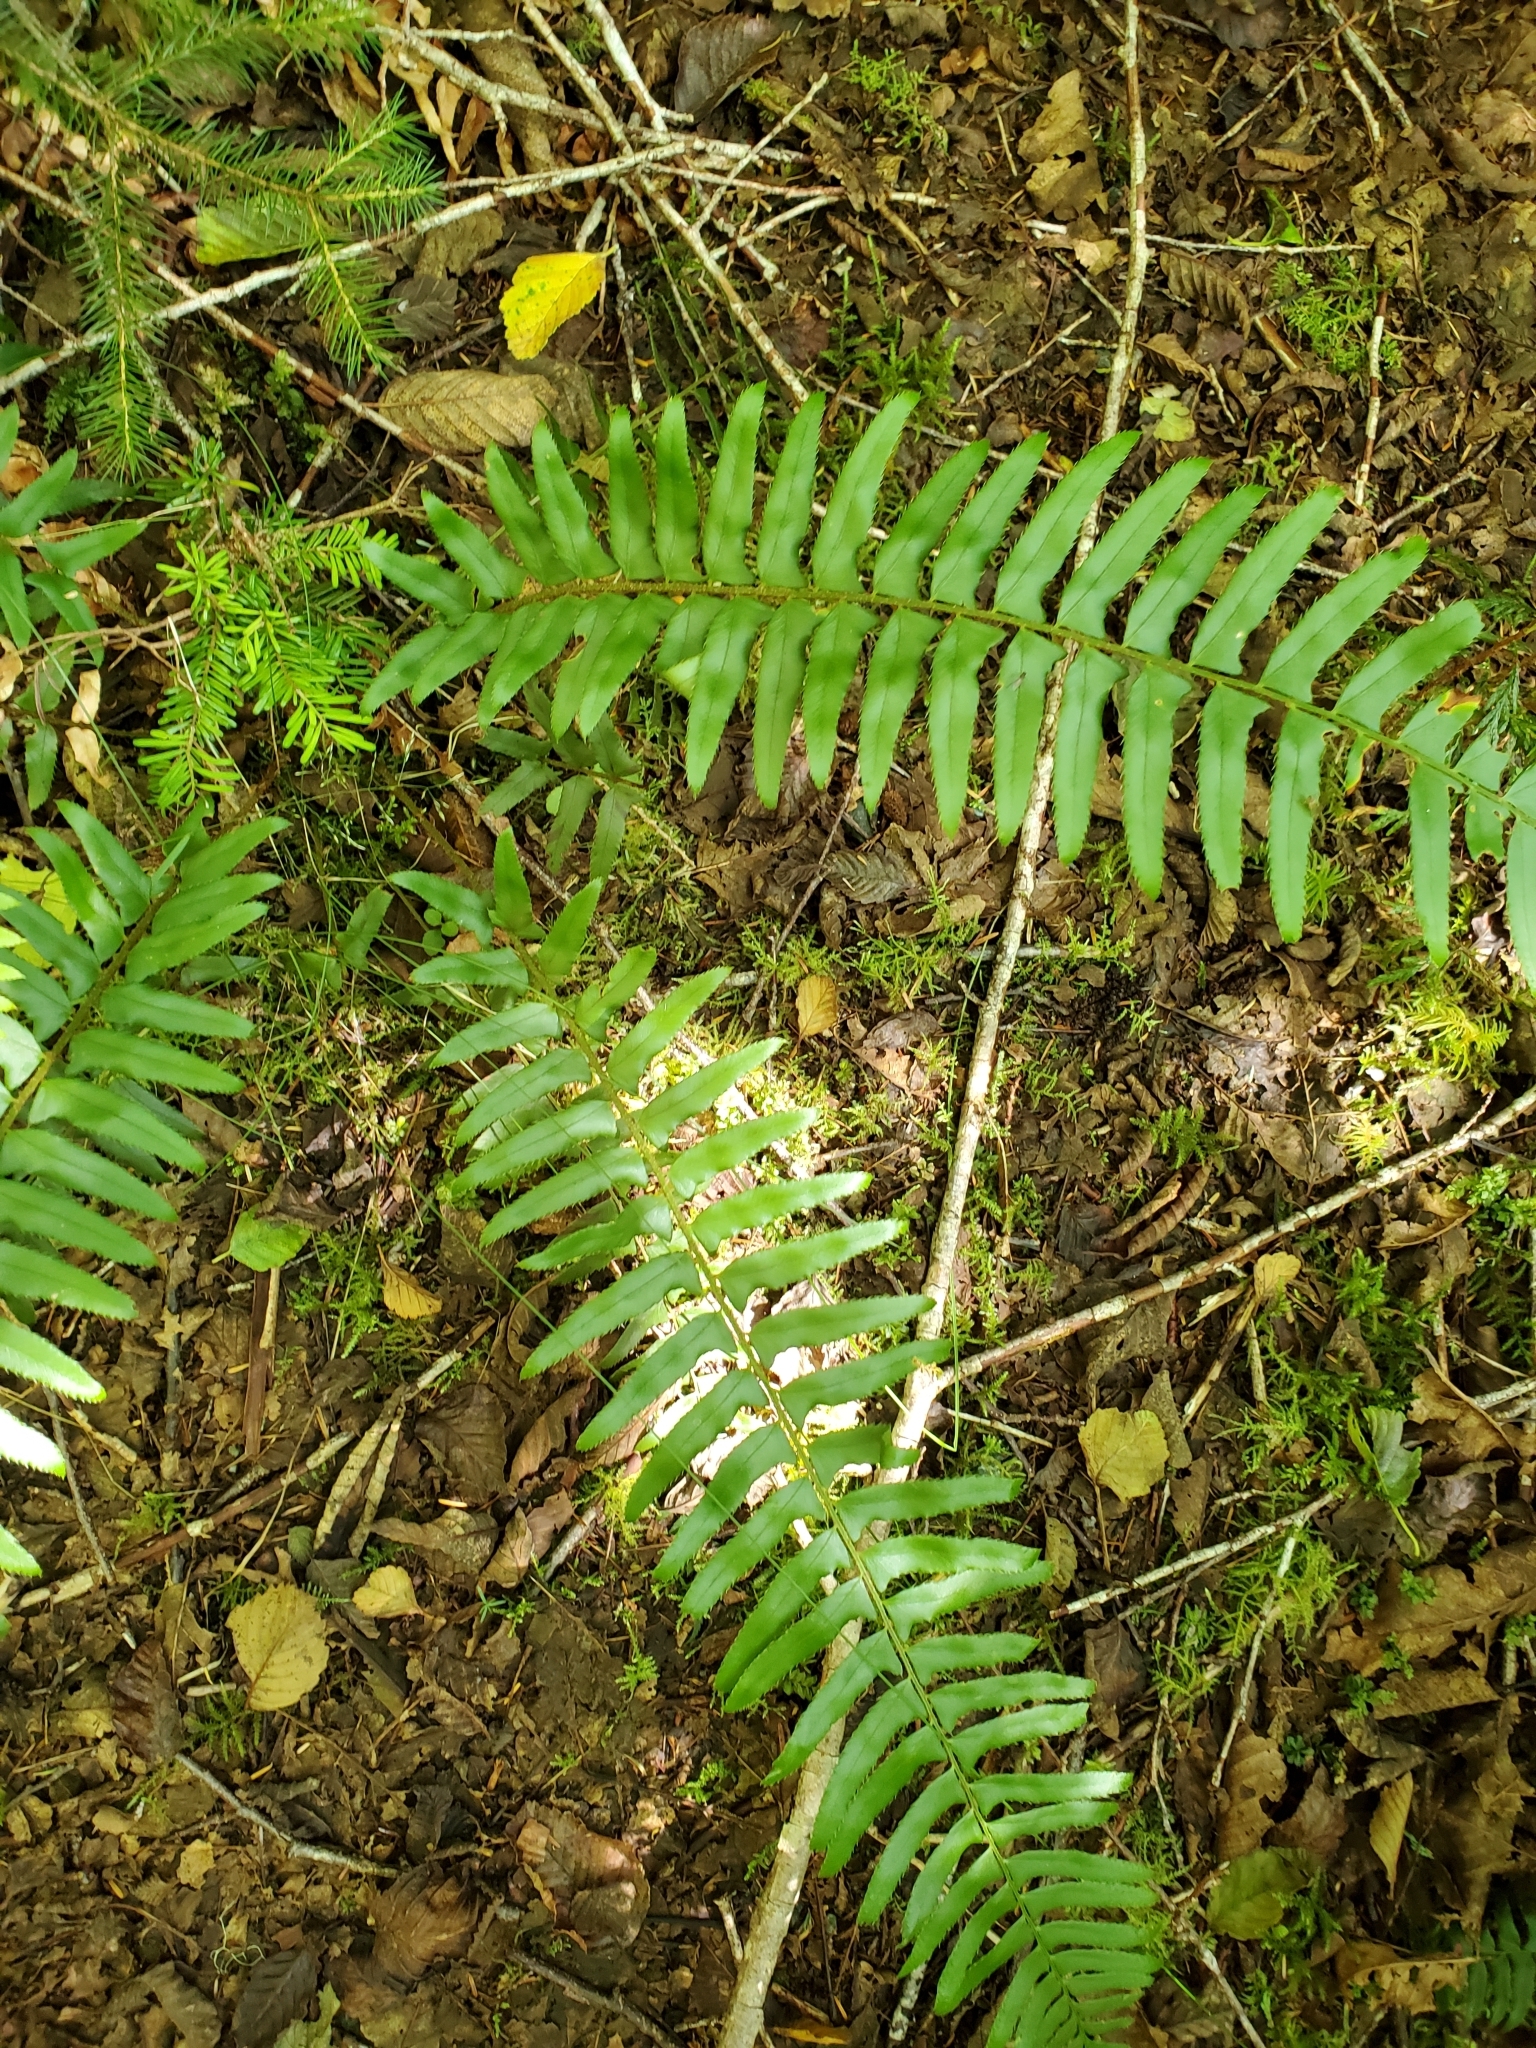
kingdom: Plantae
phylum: Tracheophyta
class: Polypodiopsida
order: Polypodiales
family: Dryopteridaceae
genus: Polystichum
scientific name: Polystichum munitum
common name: Western sword-fern
